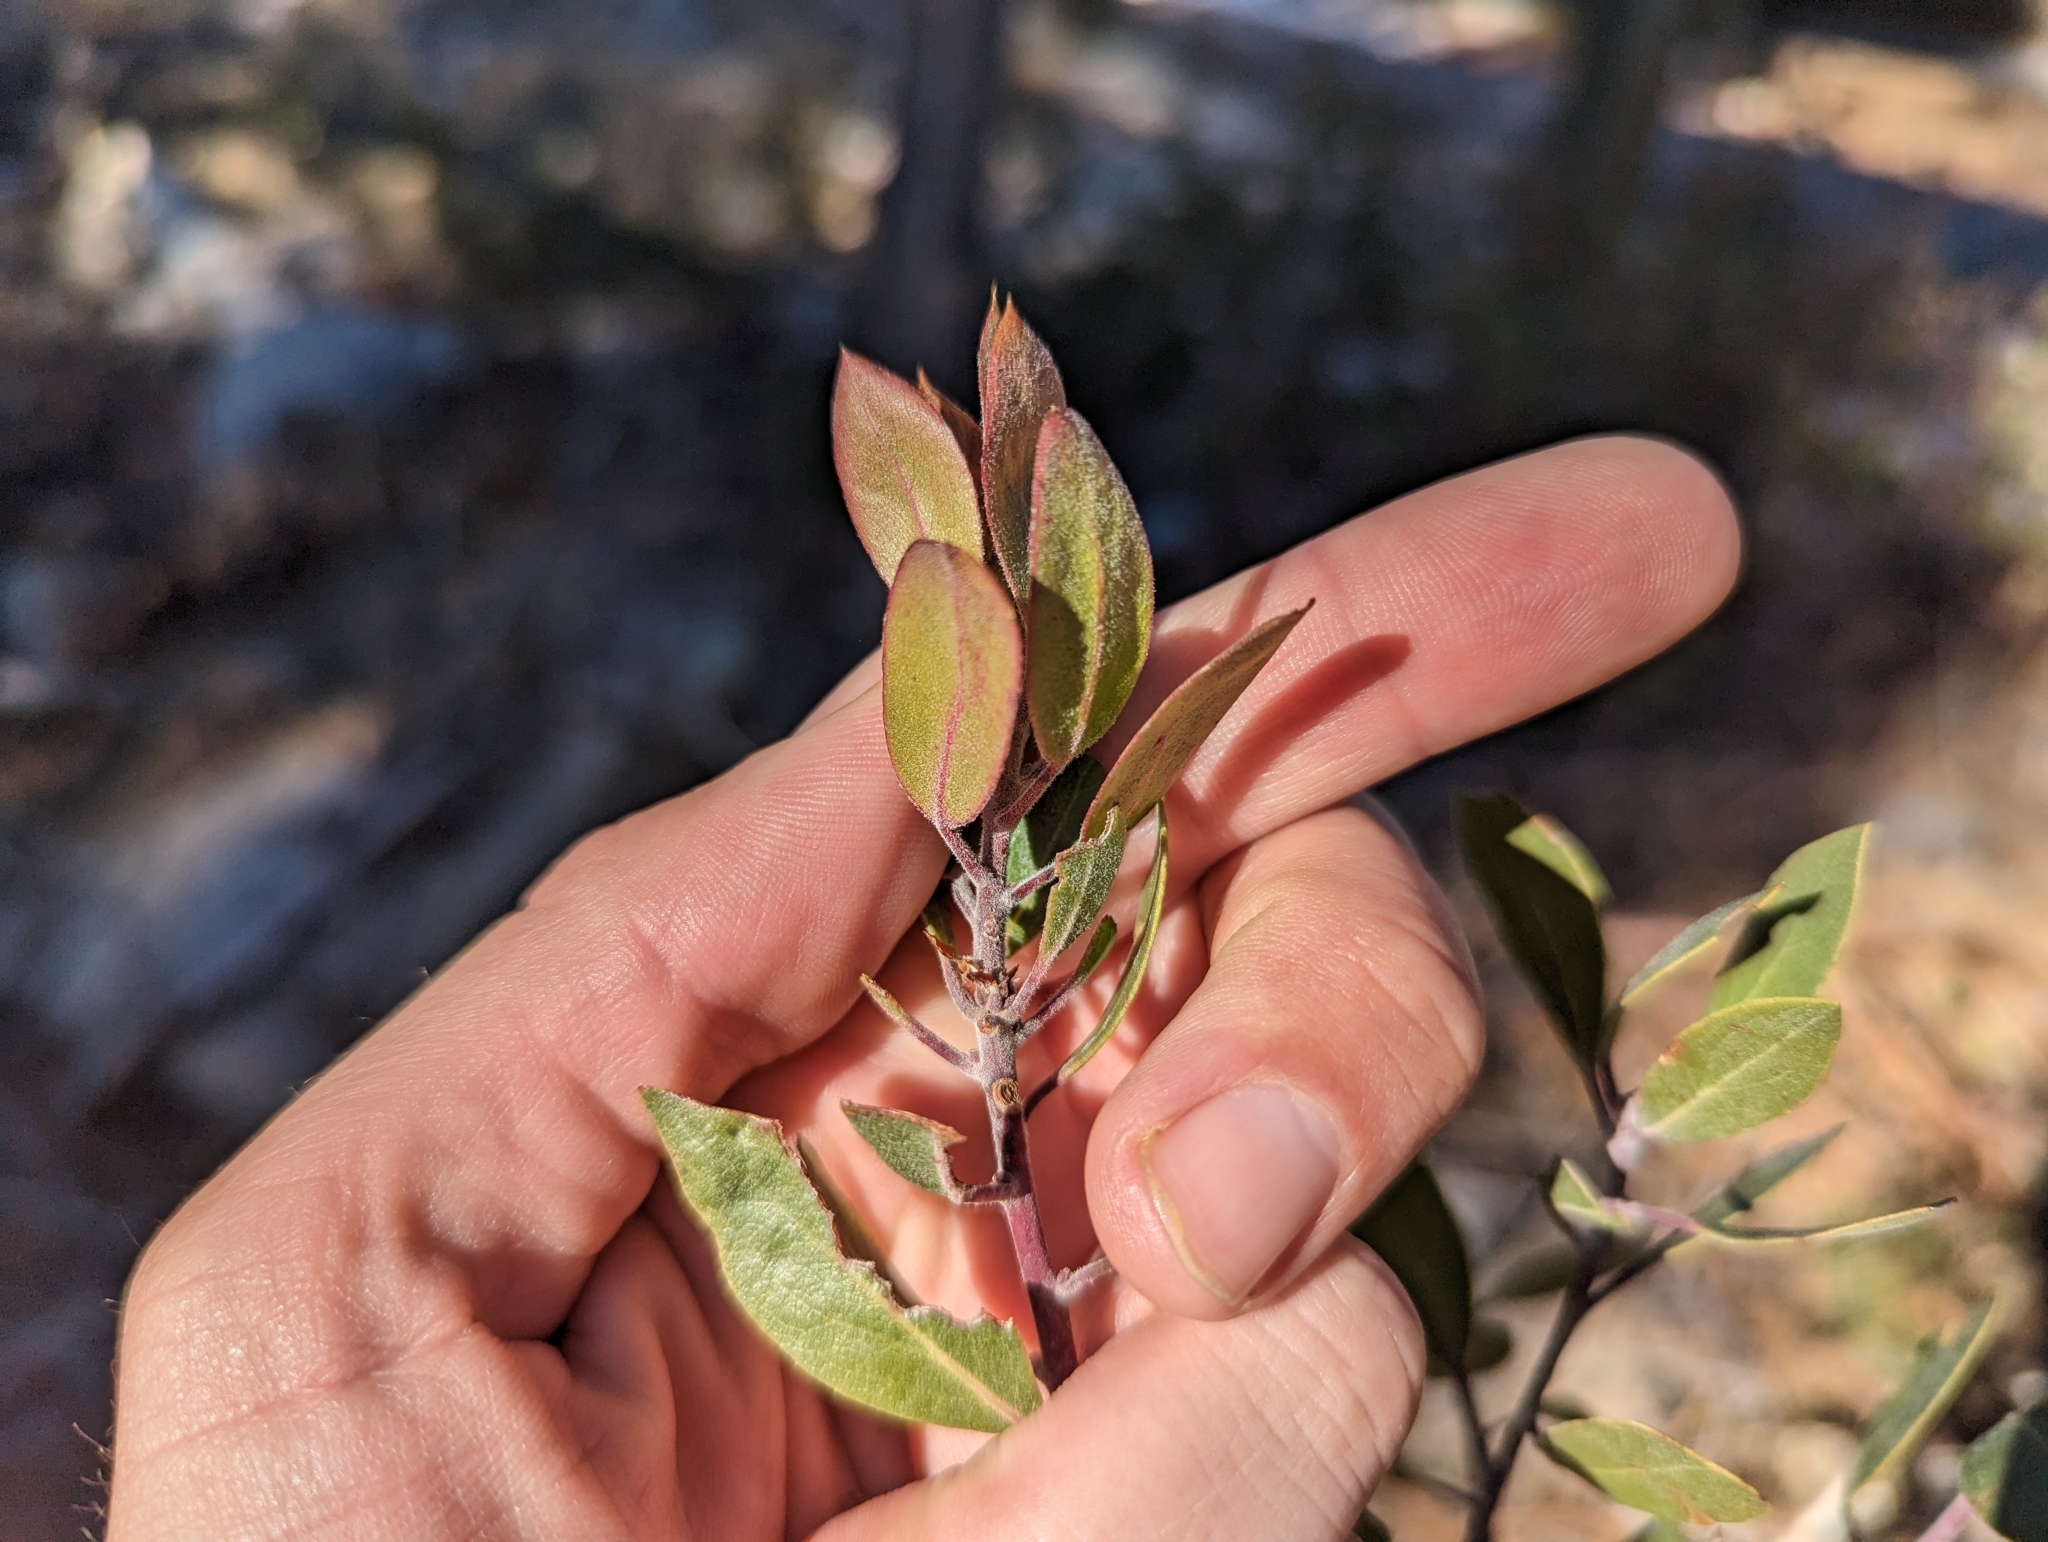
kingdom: Plantae
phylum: Tracheophyta
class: Magnoliopsida
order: Ericales
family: Ericaceae
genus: Arctostaphylos
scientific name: Arctostaphylos pungens
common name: Mexican manzanita
